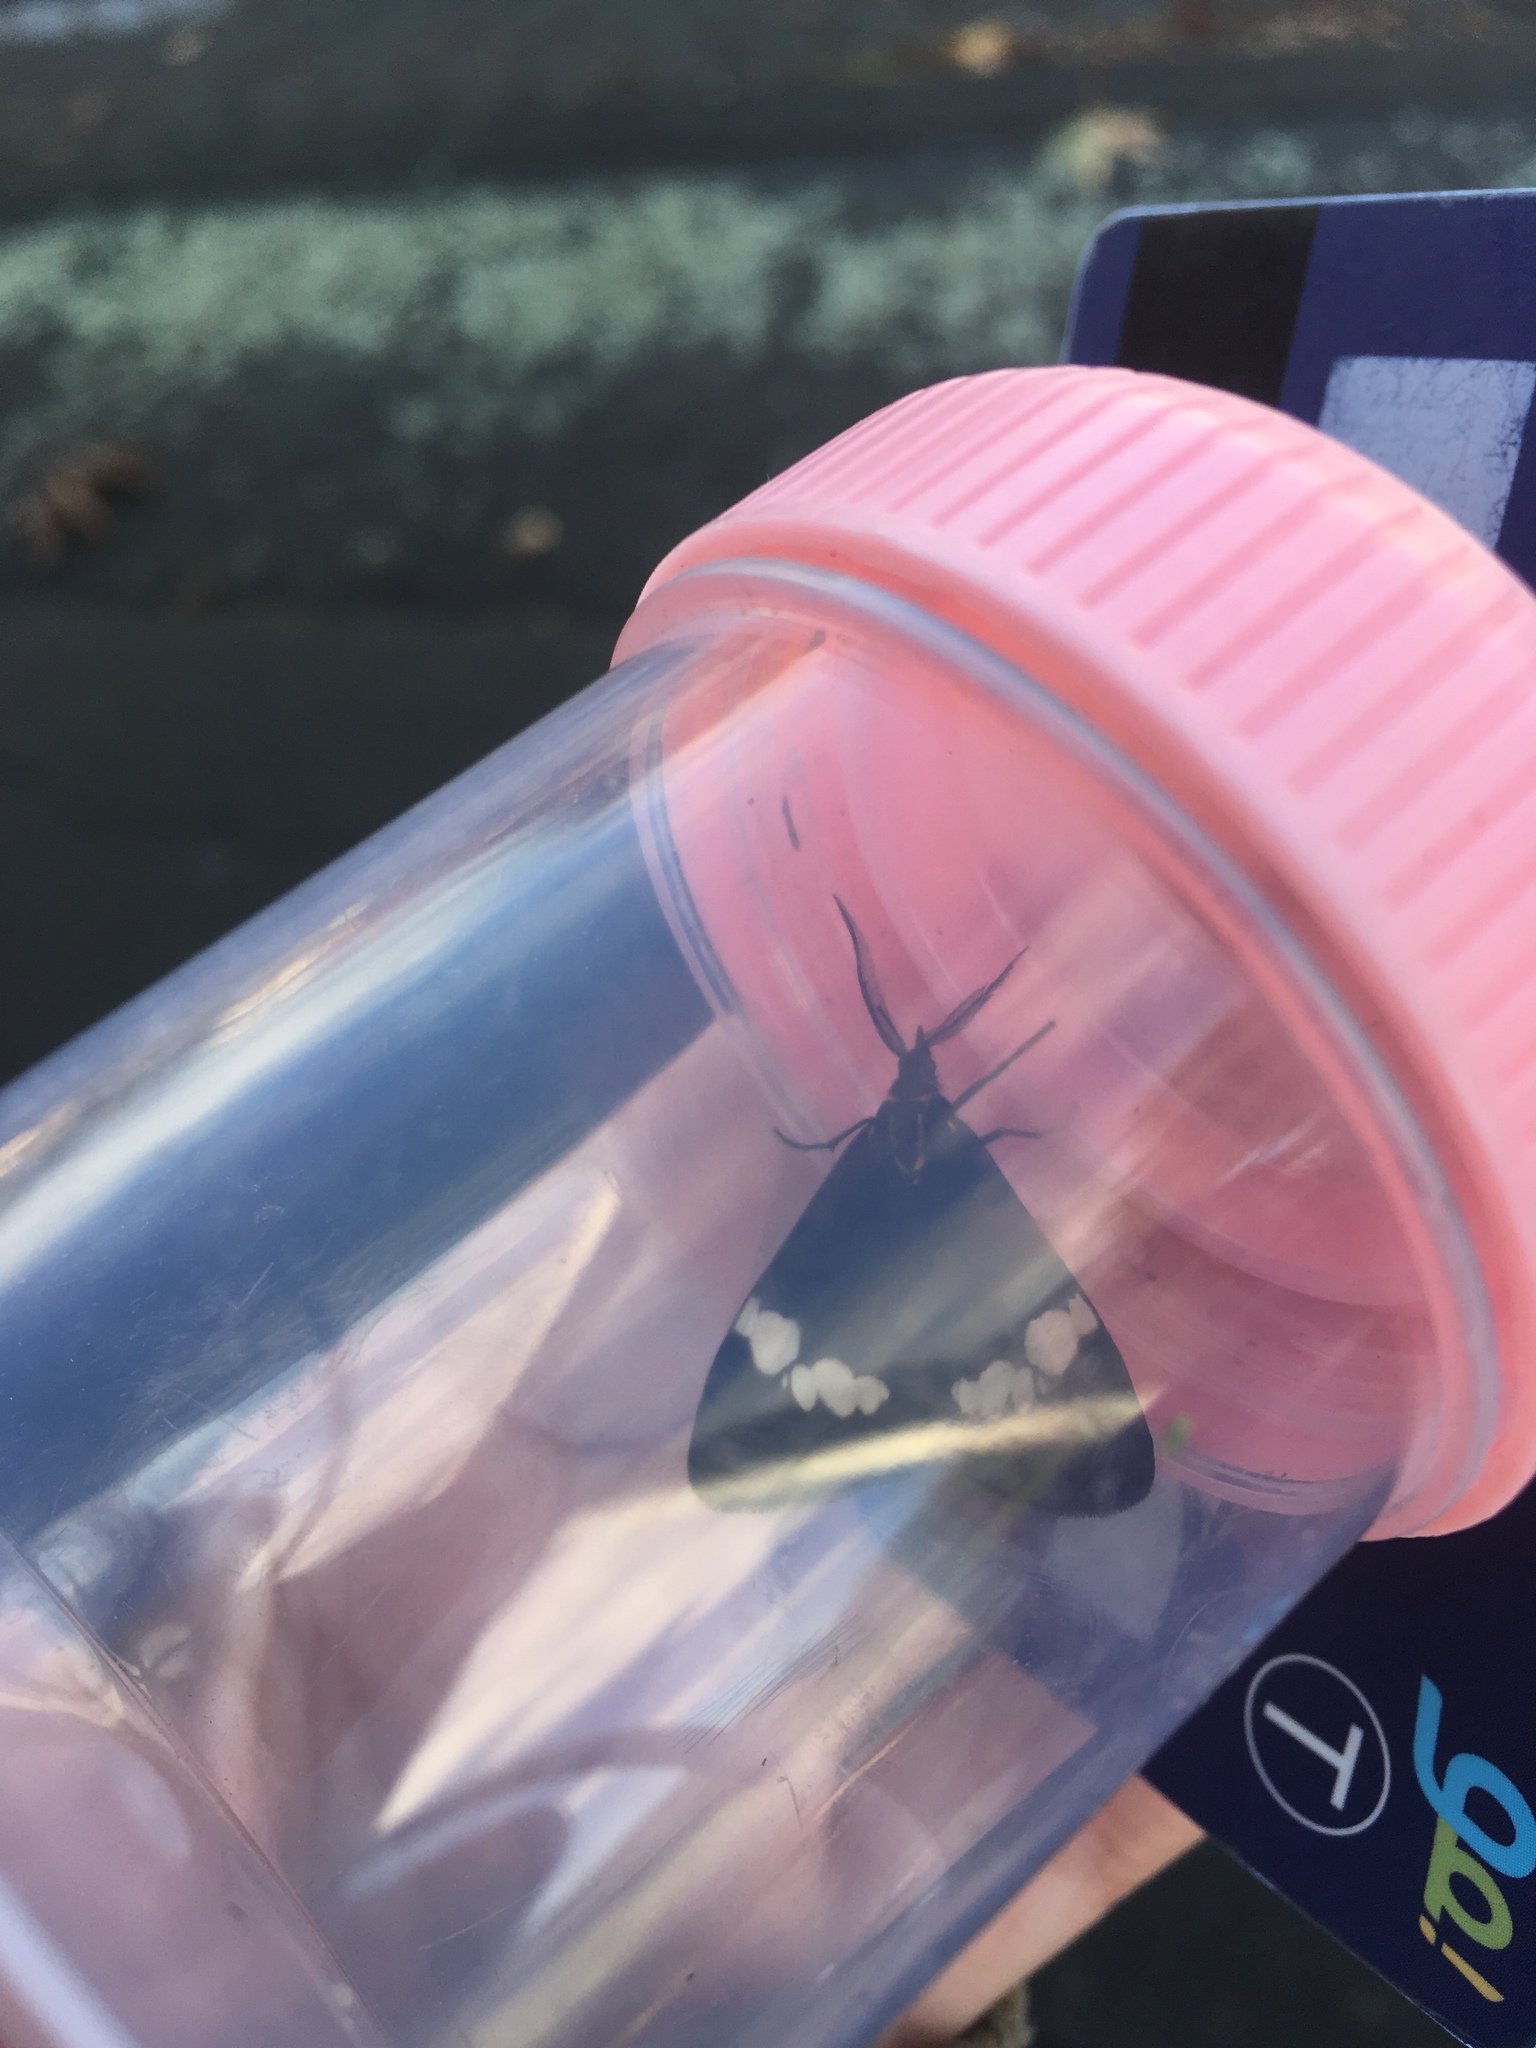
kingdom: Animalia
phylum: Arthropoda
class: Insecta
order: Lepidoptera
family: Erebidae
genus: Nyctemera
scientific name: Nyctemera annulatum
